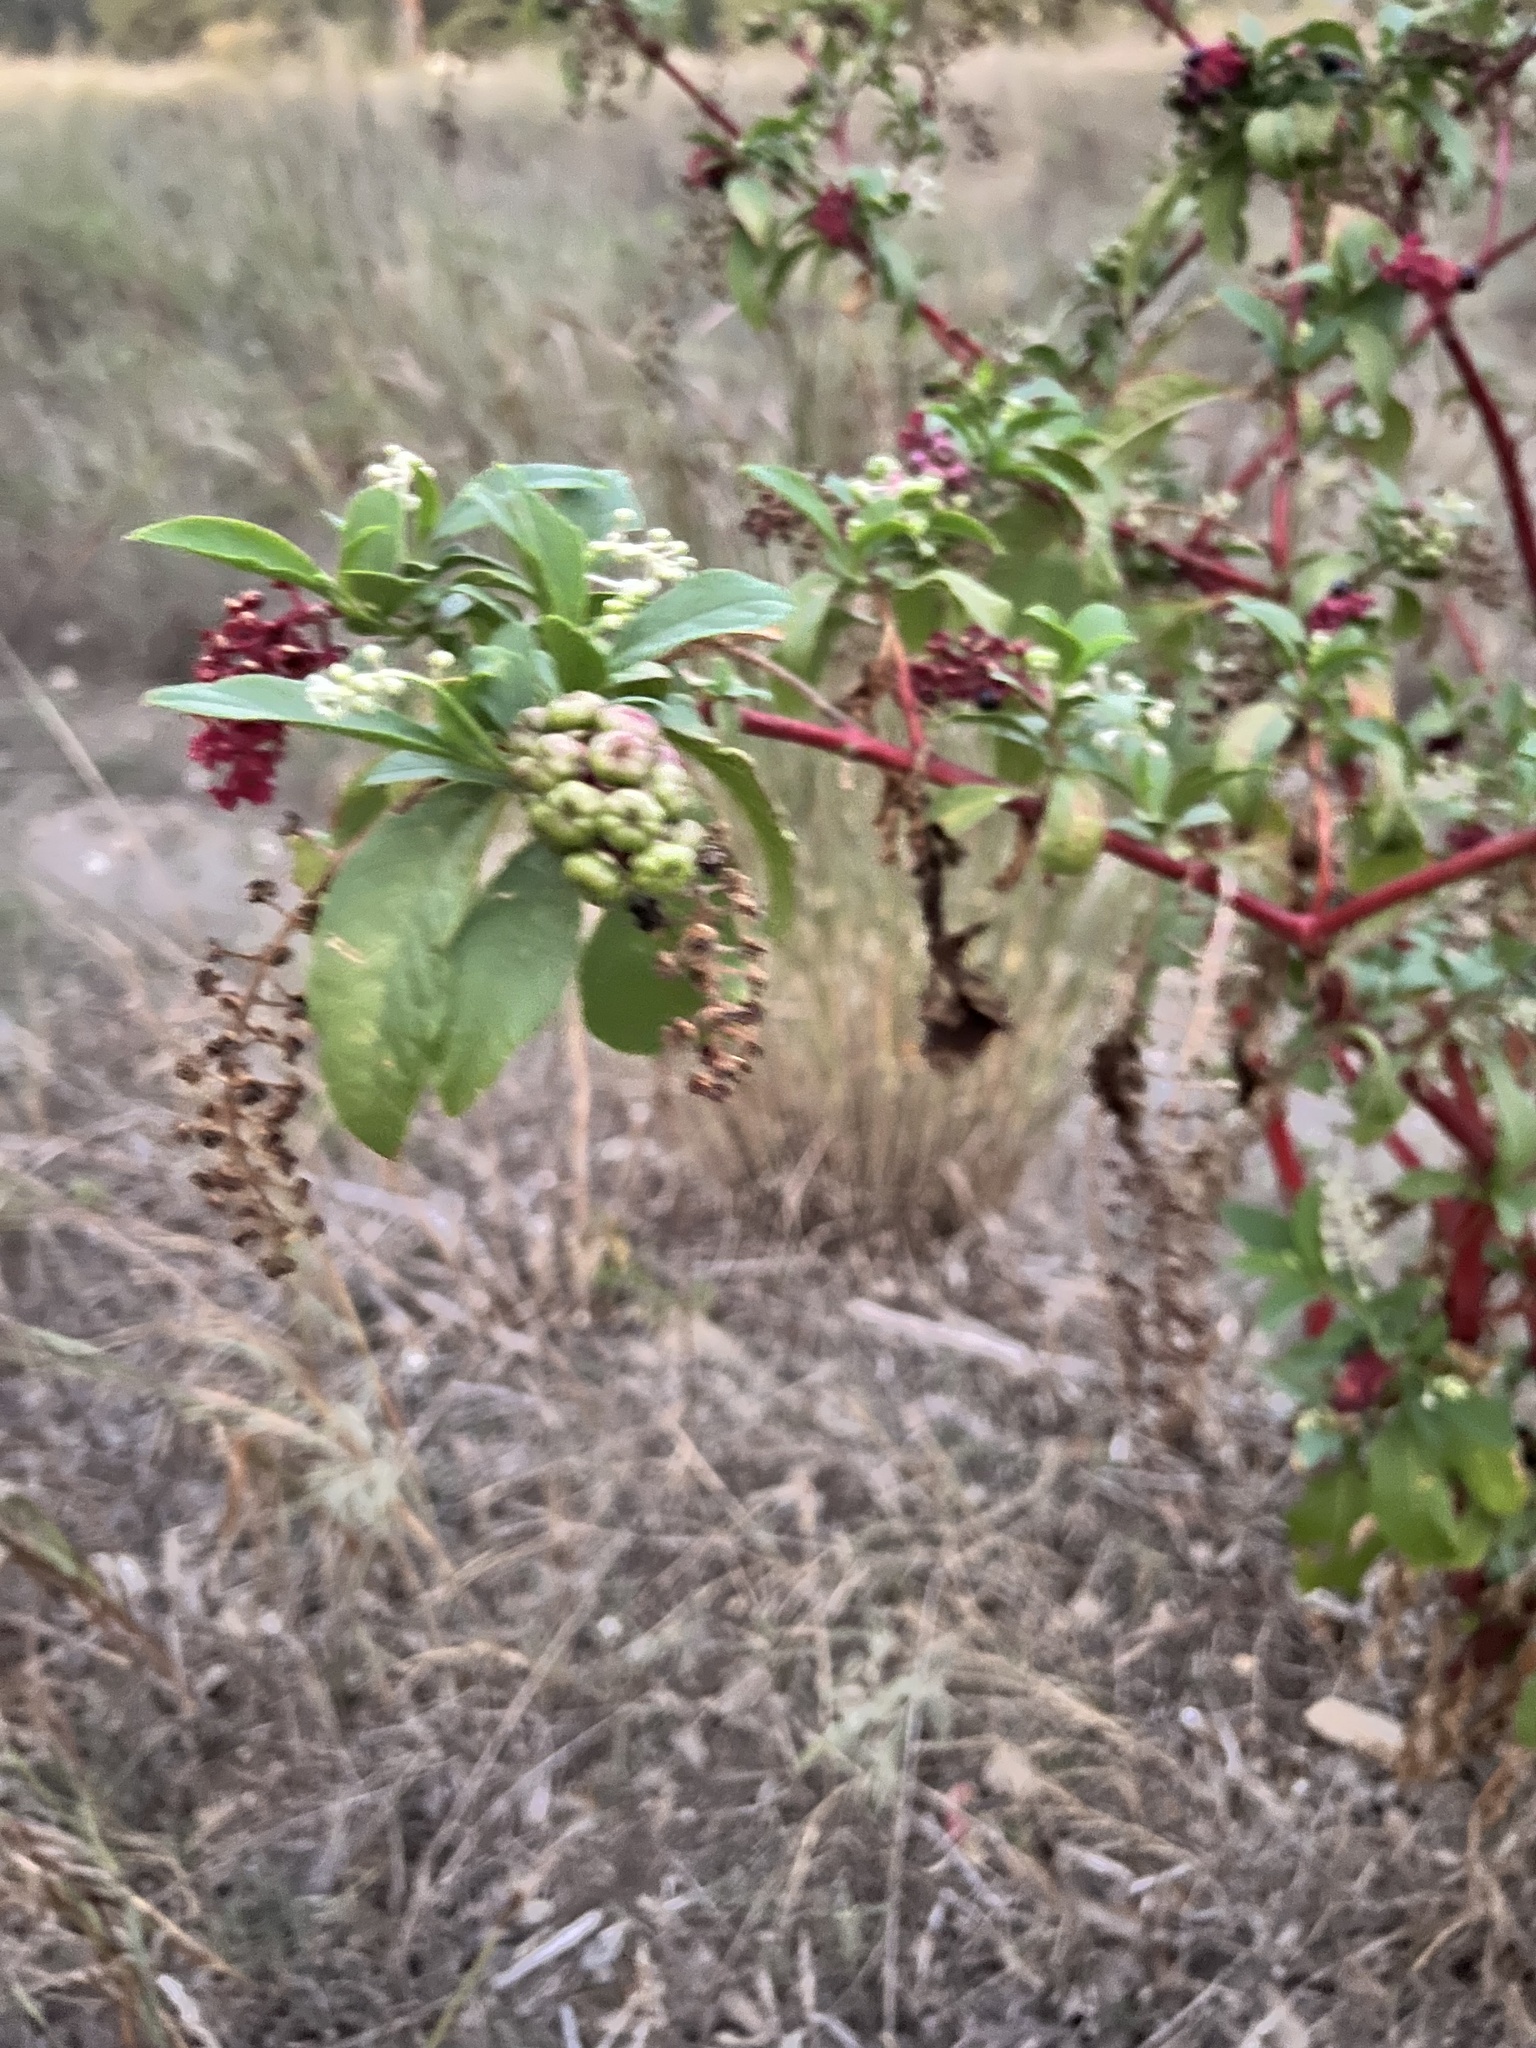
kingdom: Plantae
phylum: Tracheophyta
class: Magnoliopsida
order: Caryophyllales
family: Phytolaccaceae
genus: Phytolacca
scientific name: Phytolacca americana
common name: American pokeweed
